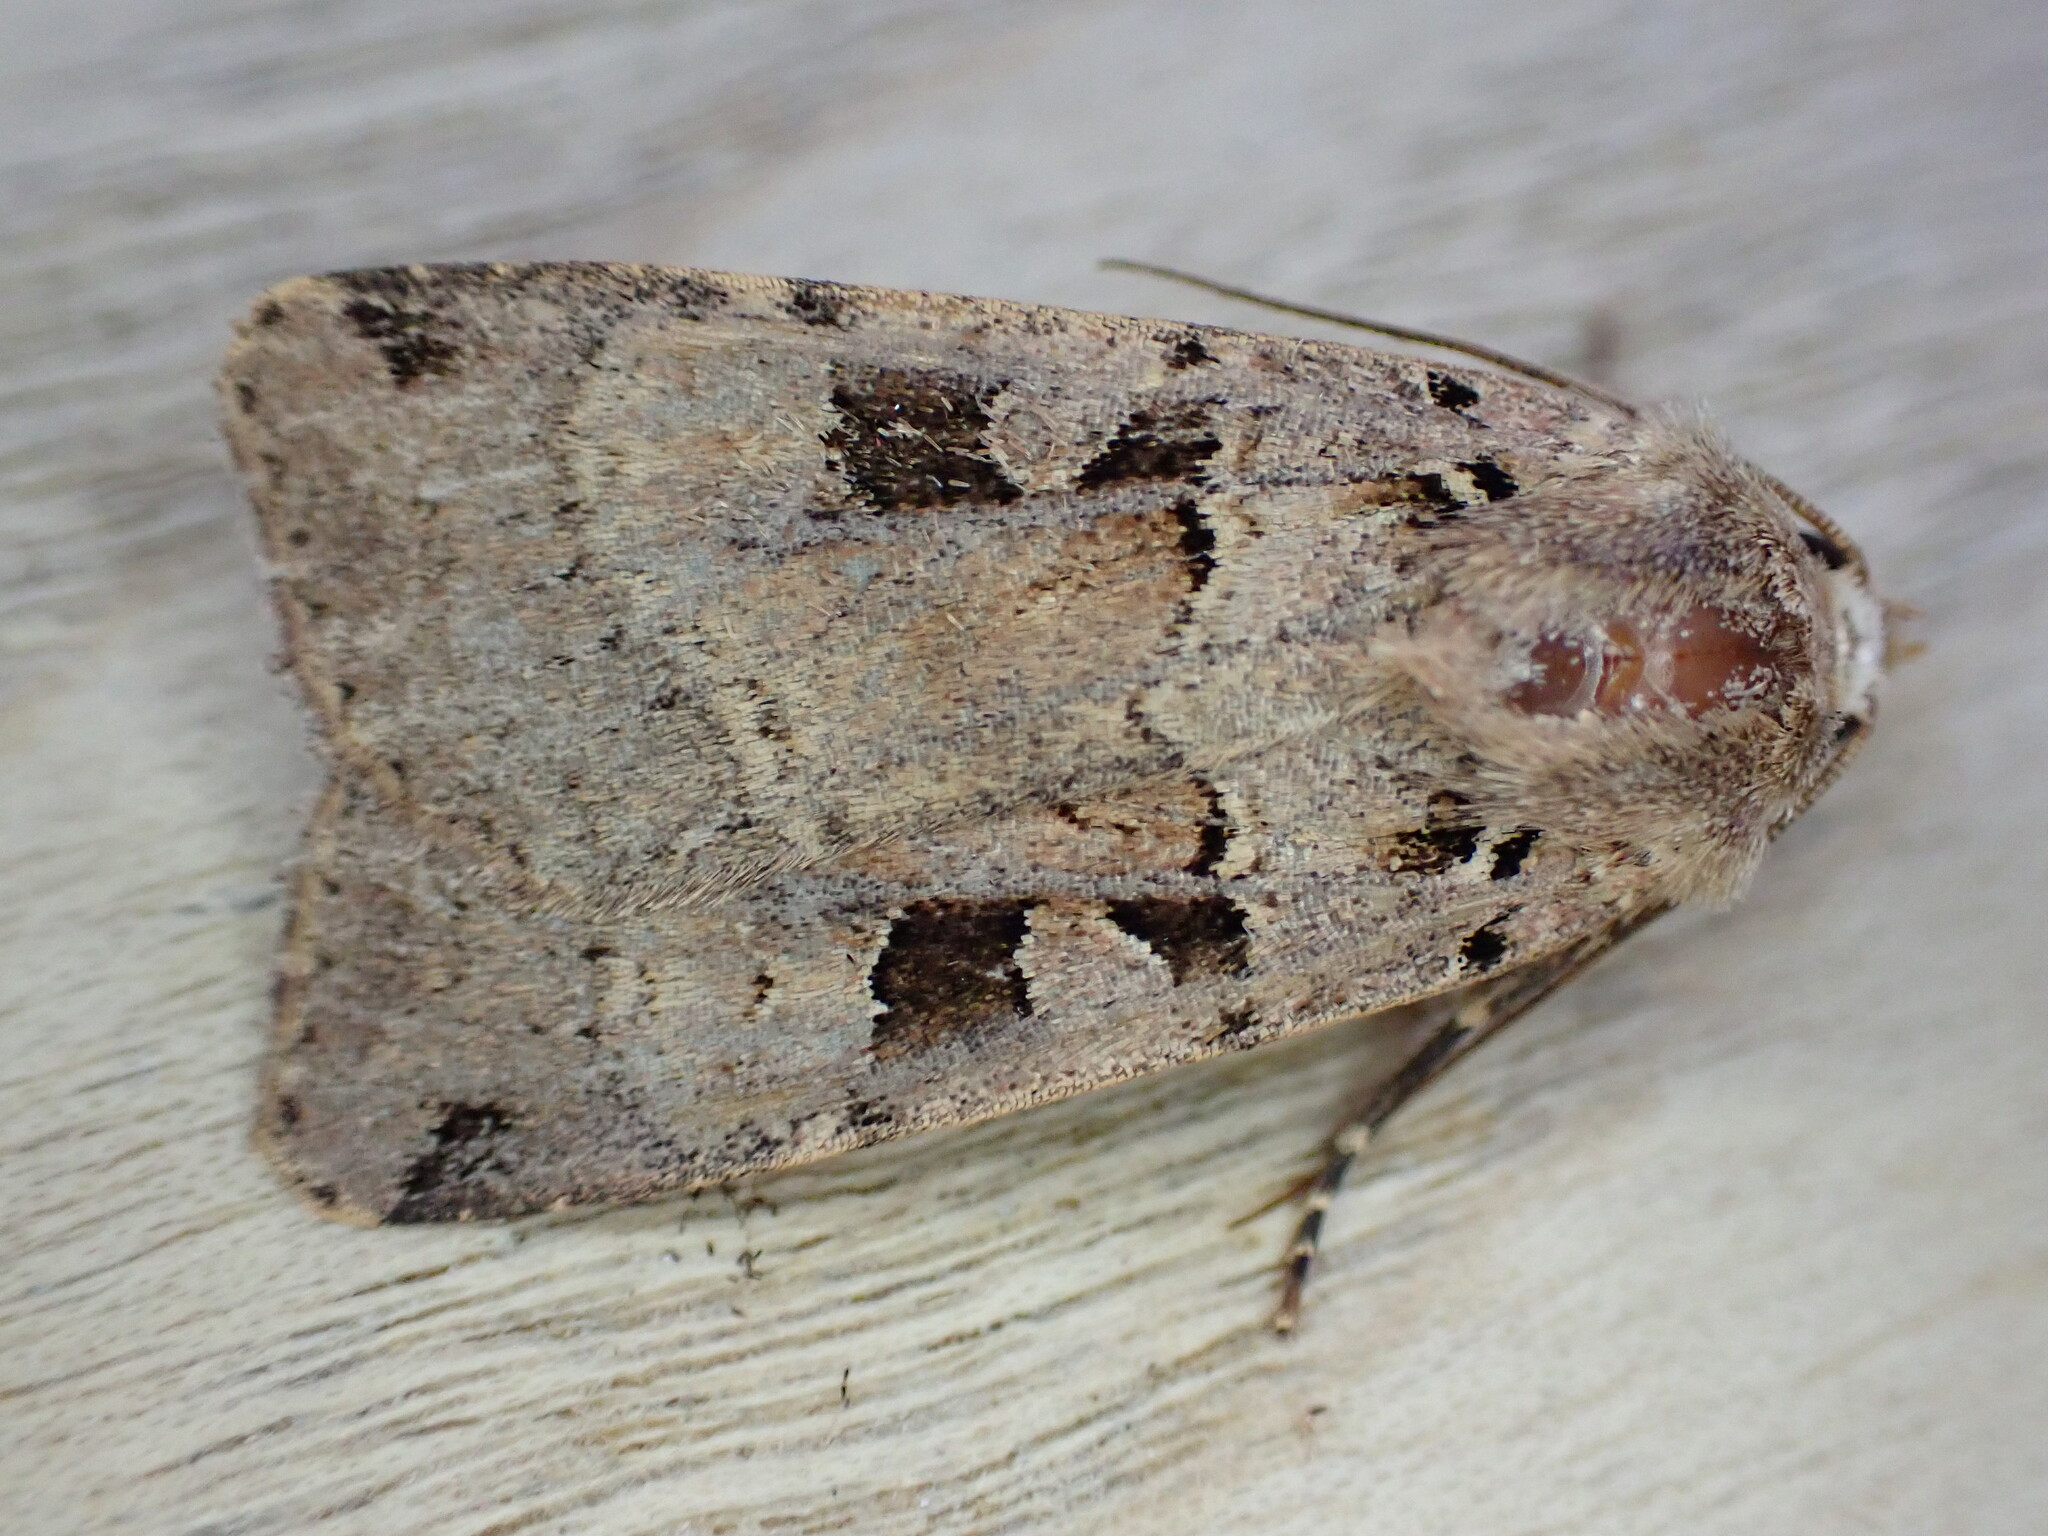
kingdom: Animalia
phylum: Arthropoda
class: Insecta
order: Lepidoptera
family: Noctuidae
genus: Xestia
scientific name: Xestia triangulum
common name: Double square-spot
